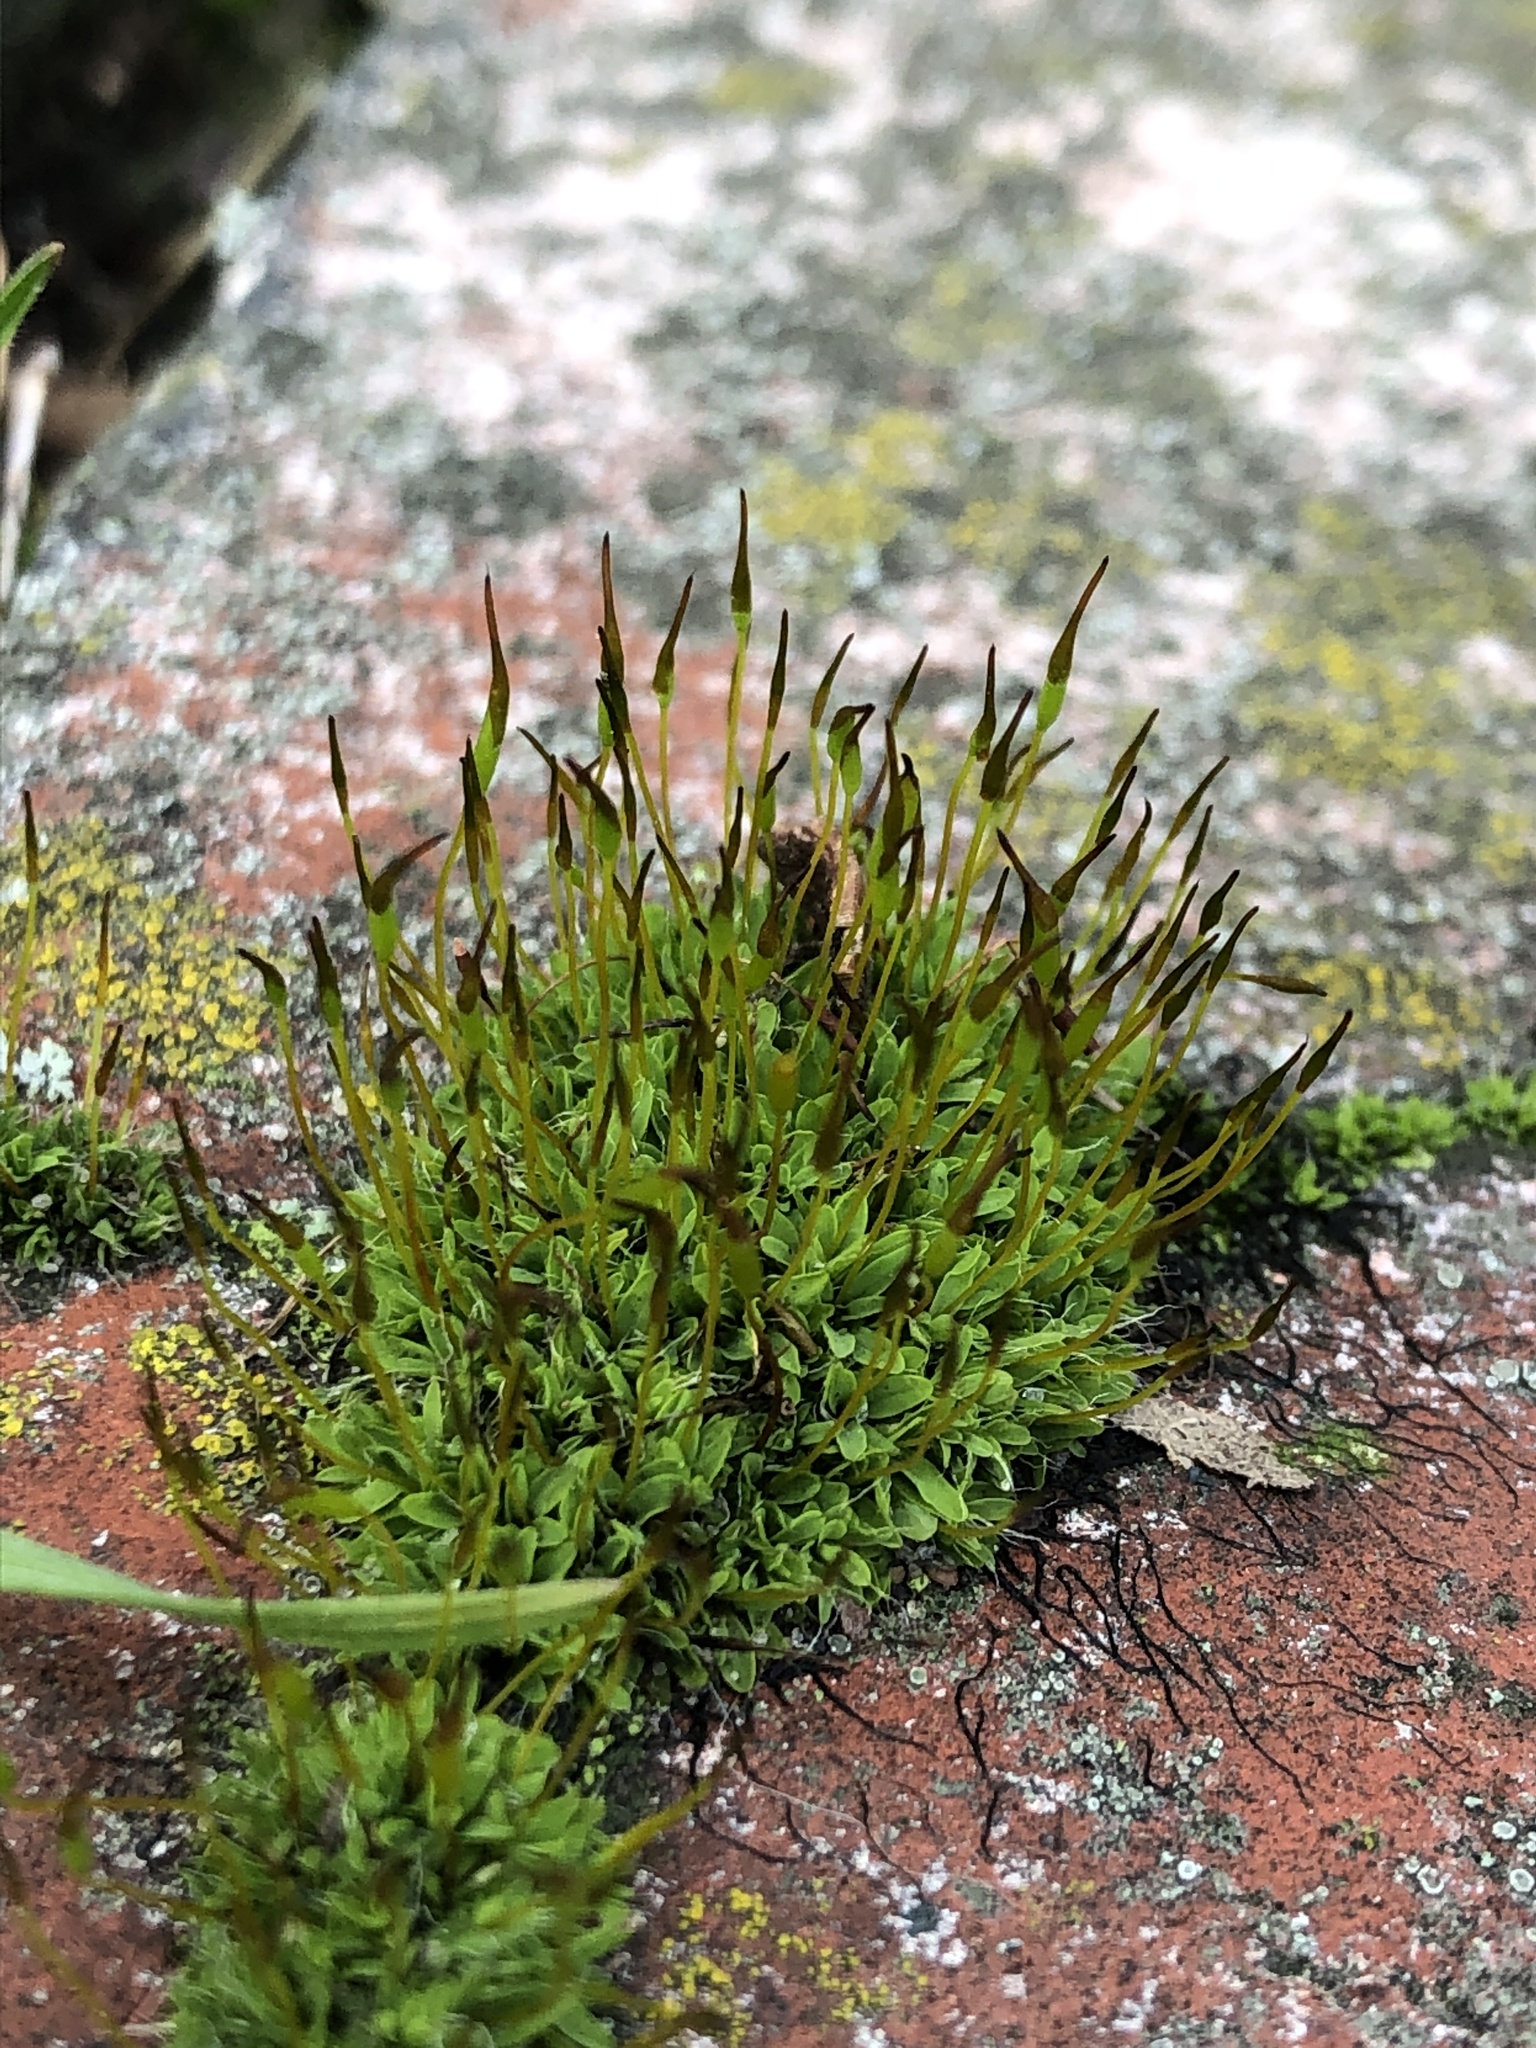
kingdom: Plantae
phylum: Bryophyta
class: Bryopsida
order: Pottiales
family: Pottiaceae
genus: Tortula
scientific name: Tortula muralis
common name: Wall screw-moss
